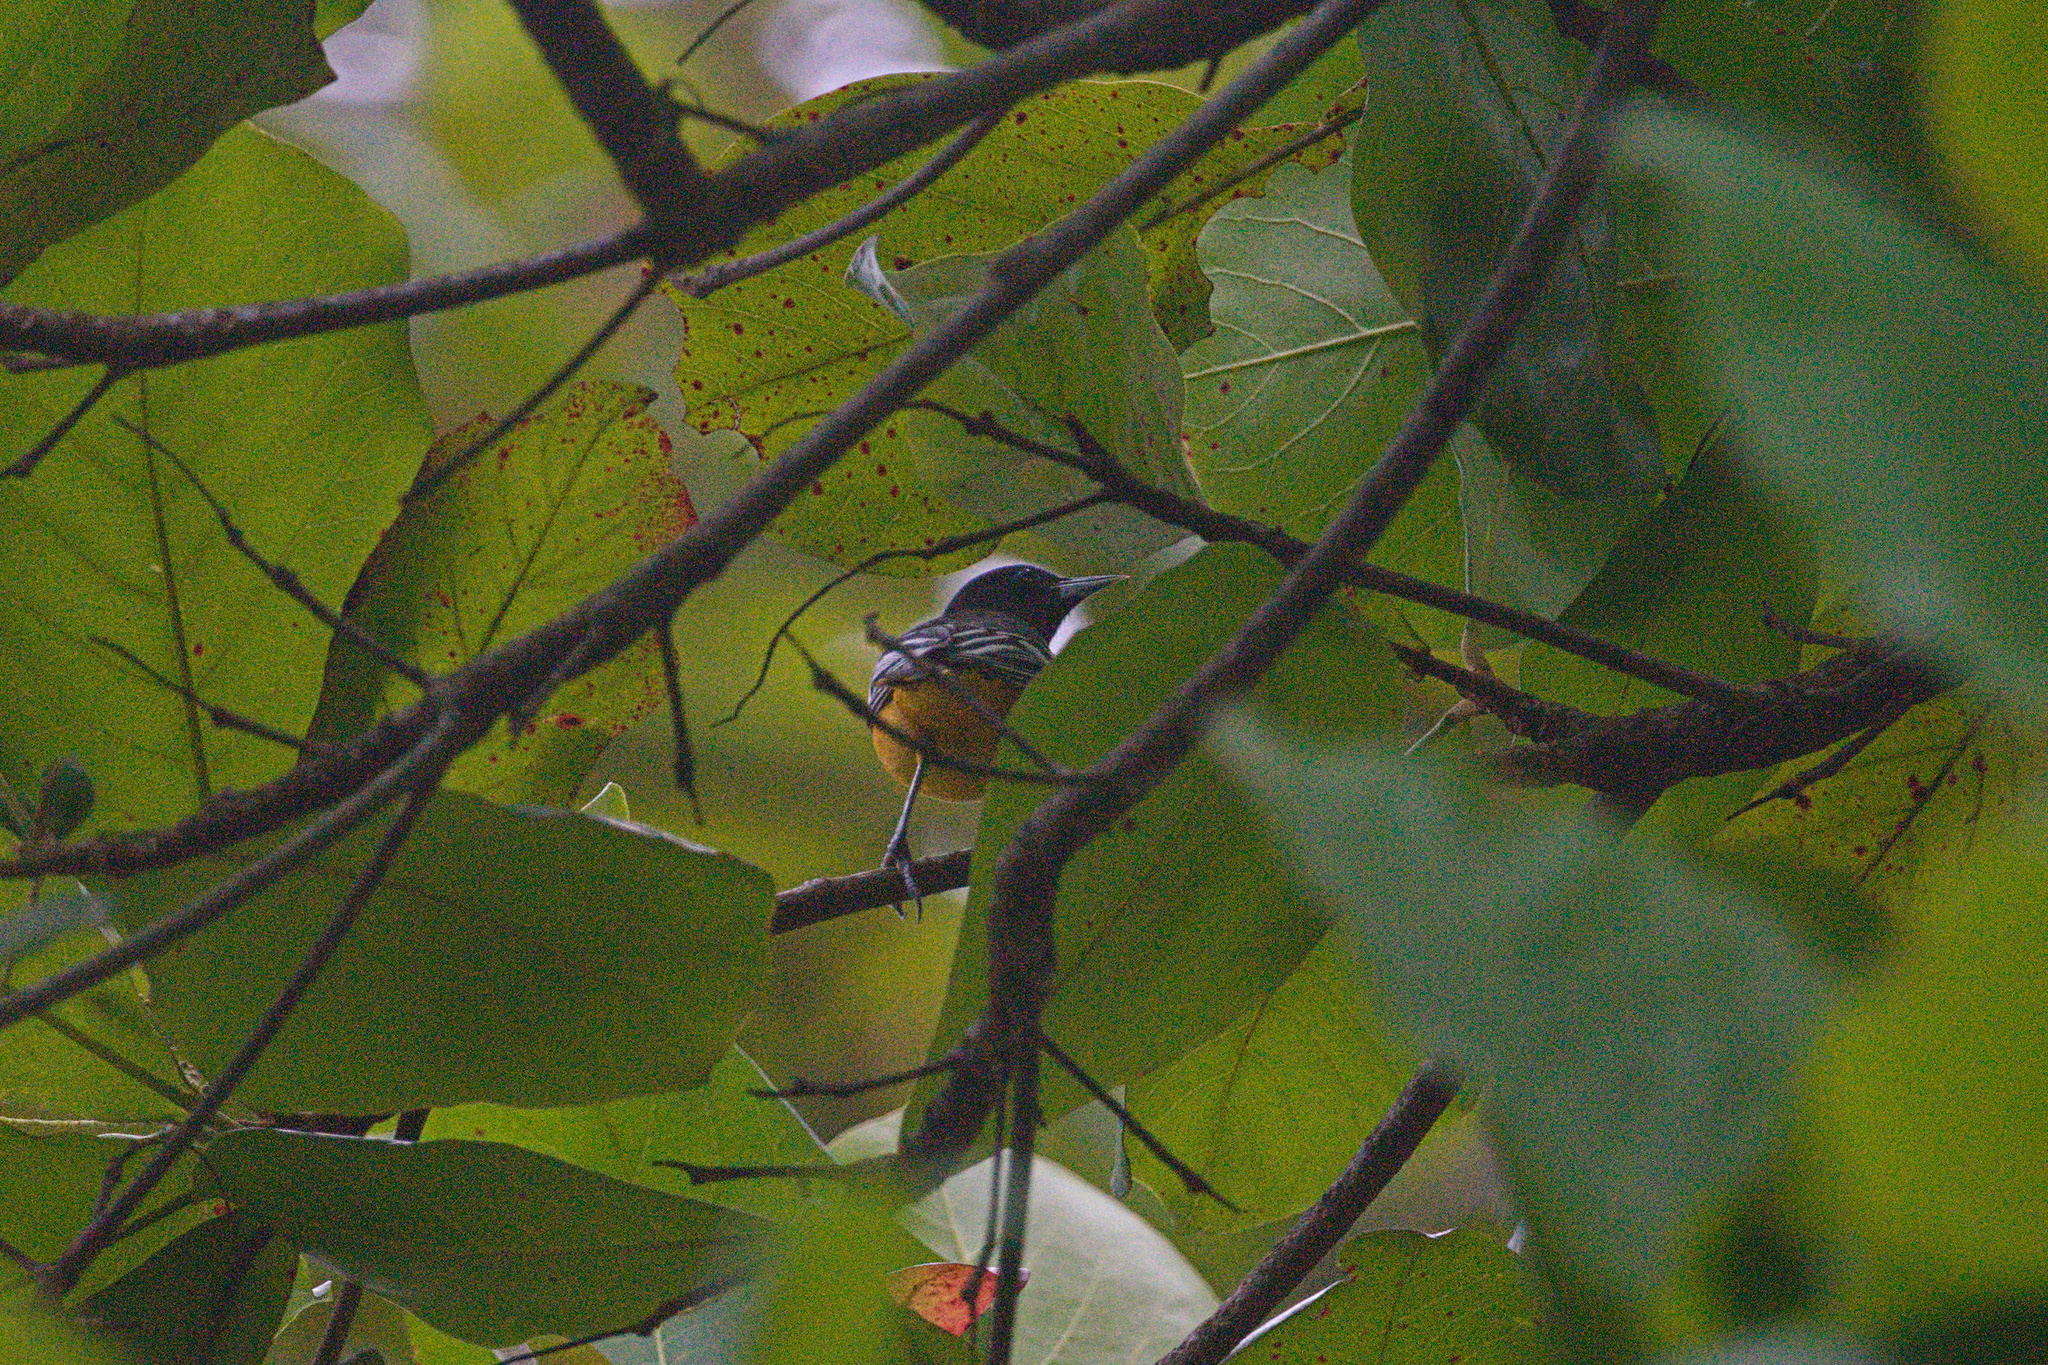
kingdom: Animalia
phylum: Chordata
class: Aves
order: Passeriformes
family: Icteridae
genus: Icterus
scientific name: Icterus galbula
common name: Baltimore oriole
